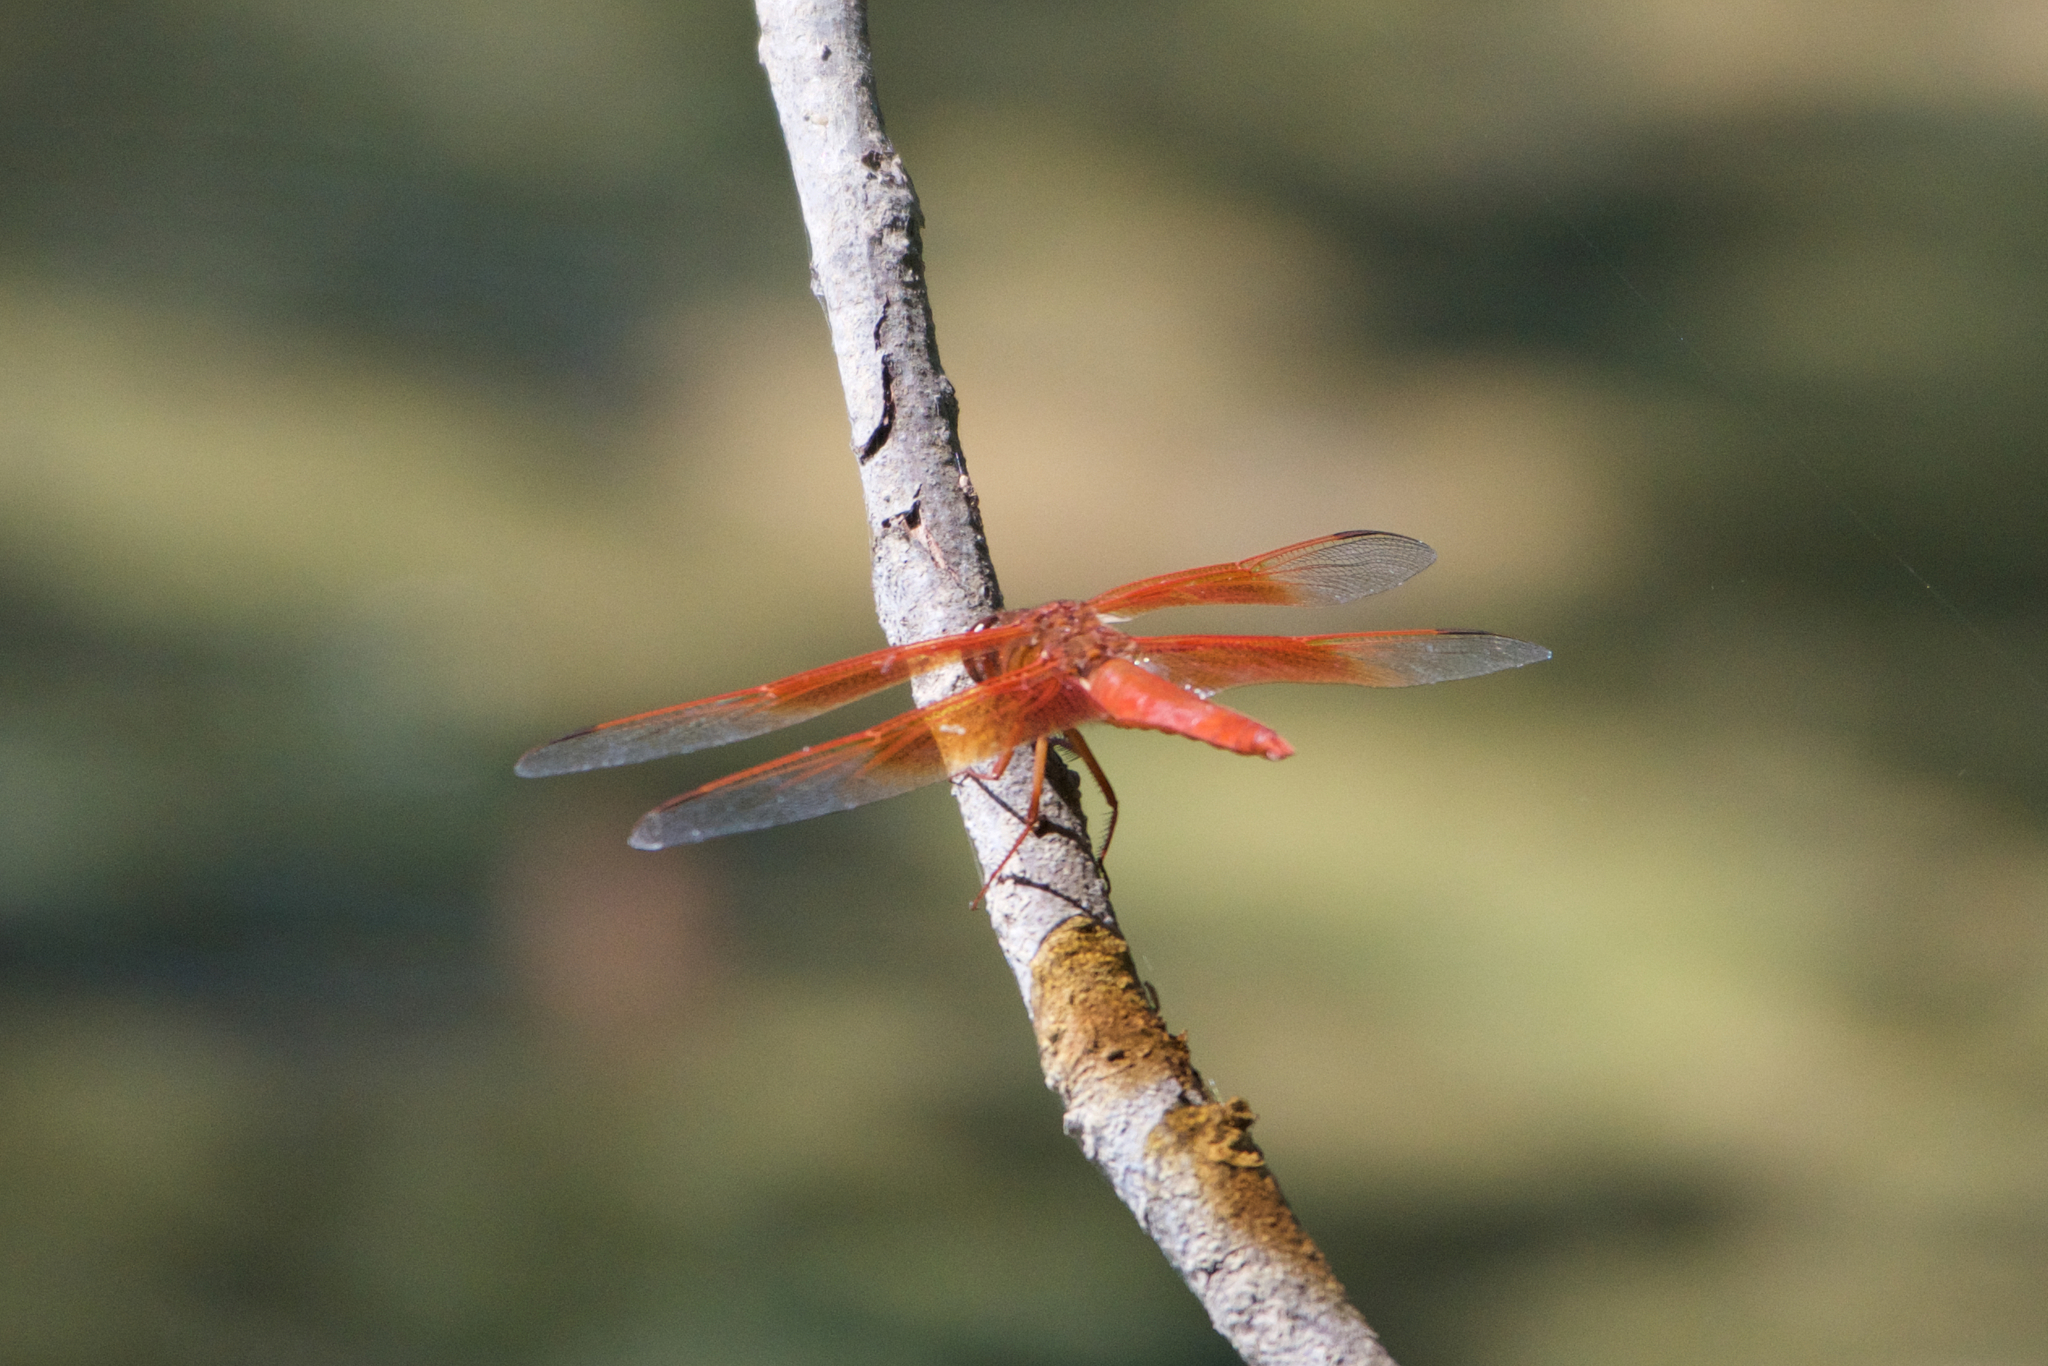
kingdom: Animalia
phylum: Arthropoda
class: Insecta
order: Odonata
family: Libellulidae
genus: Libellula
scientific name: Libellula saturata
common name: Flame skimmer
